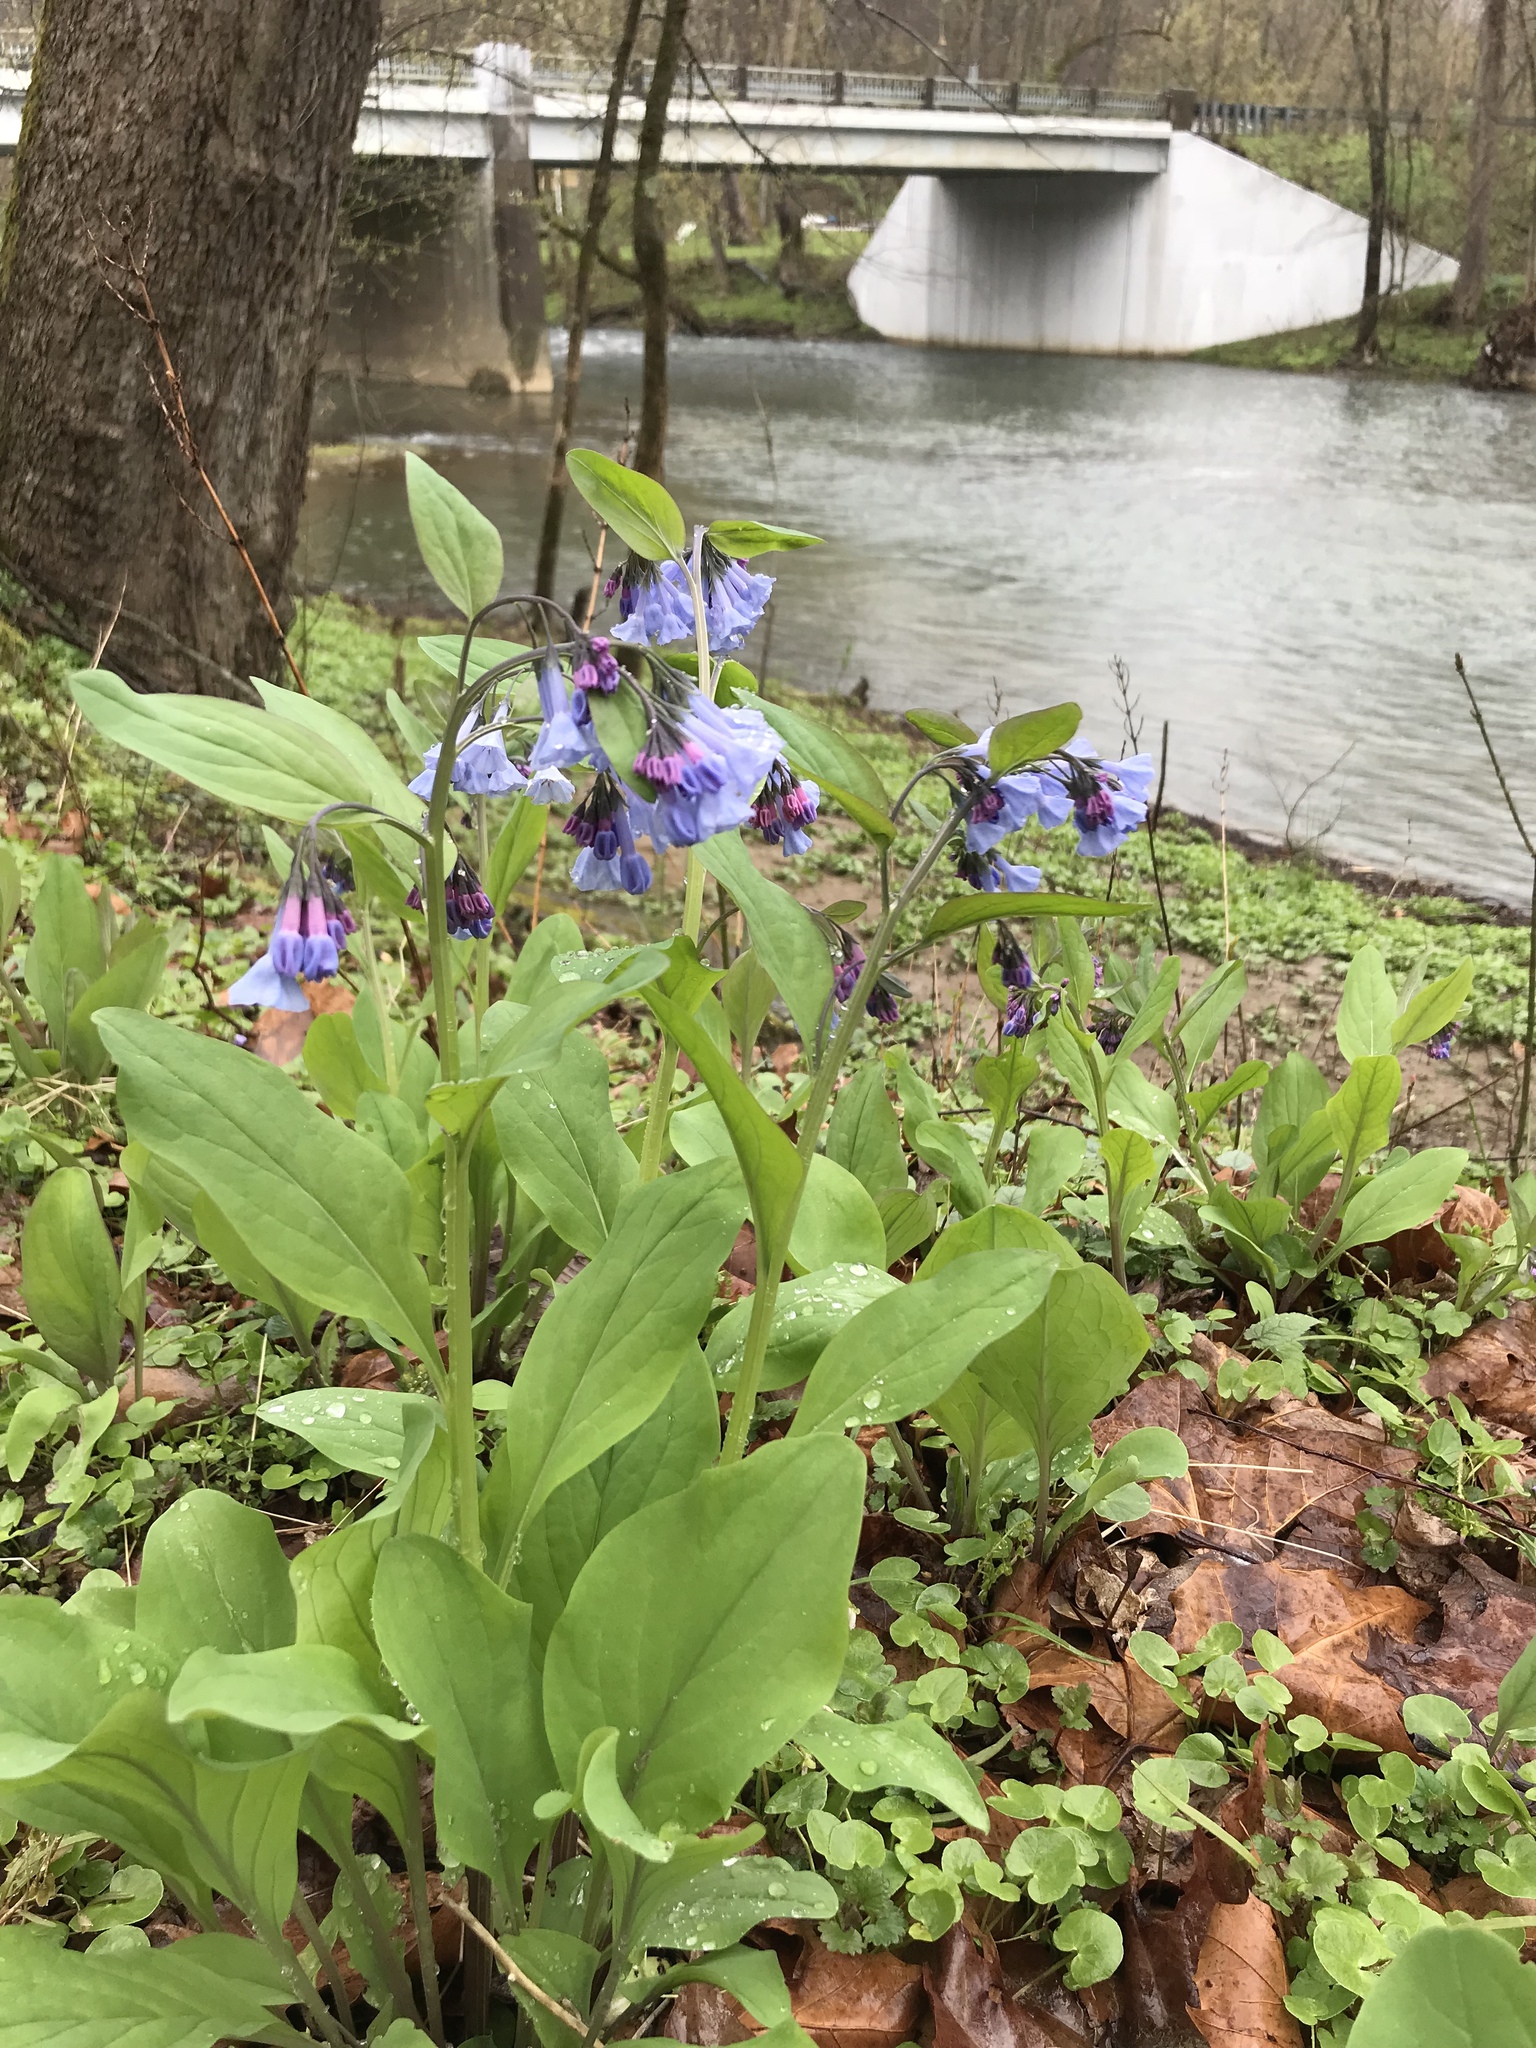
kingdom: Plantae
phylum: Tracheophyta
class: Magnoliopsida
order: Boraginales
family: Boraginaceae
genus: Mertensia
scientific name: Mertensia virginica
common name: Virginia bluebells
